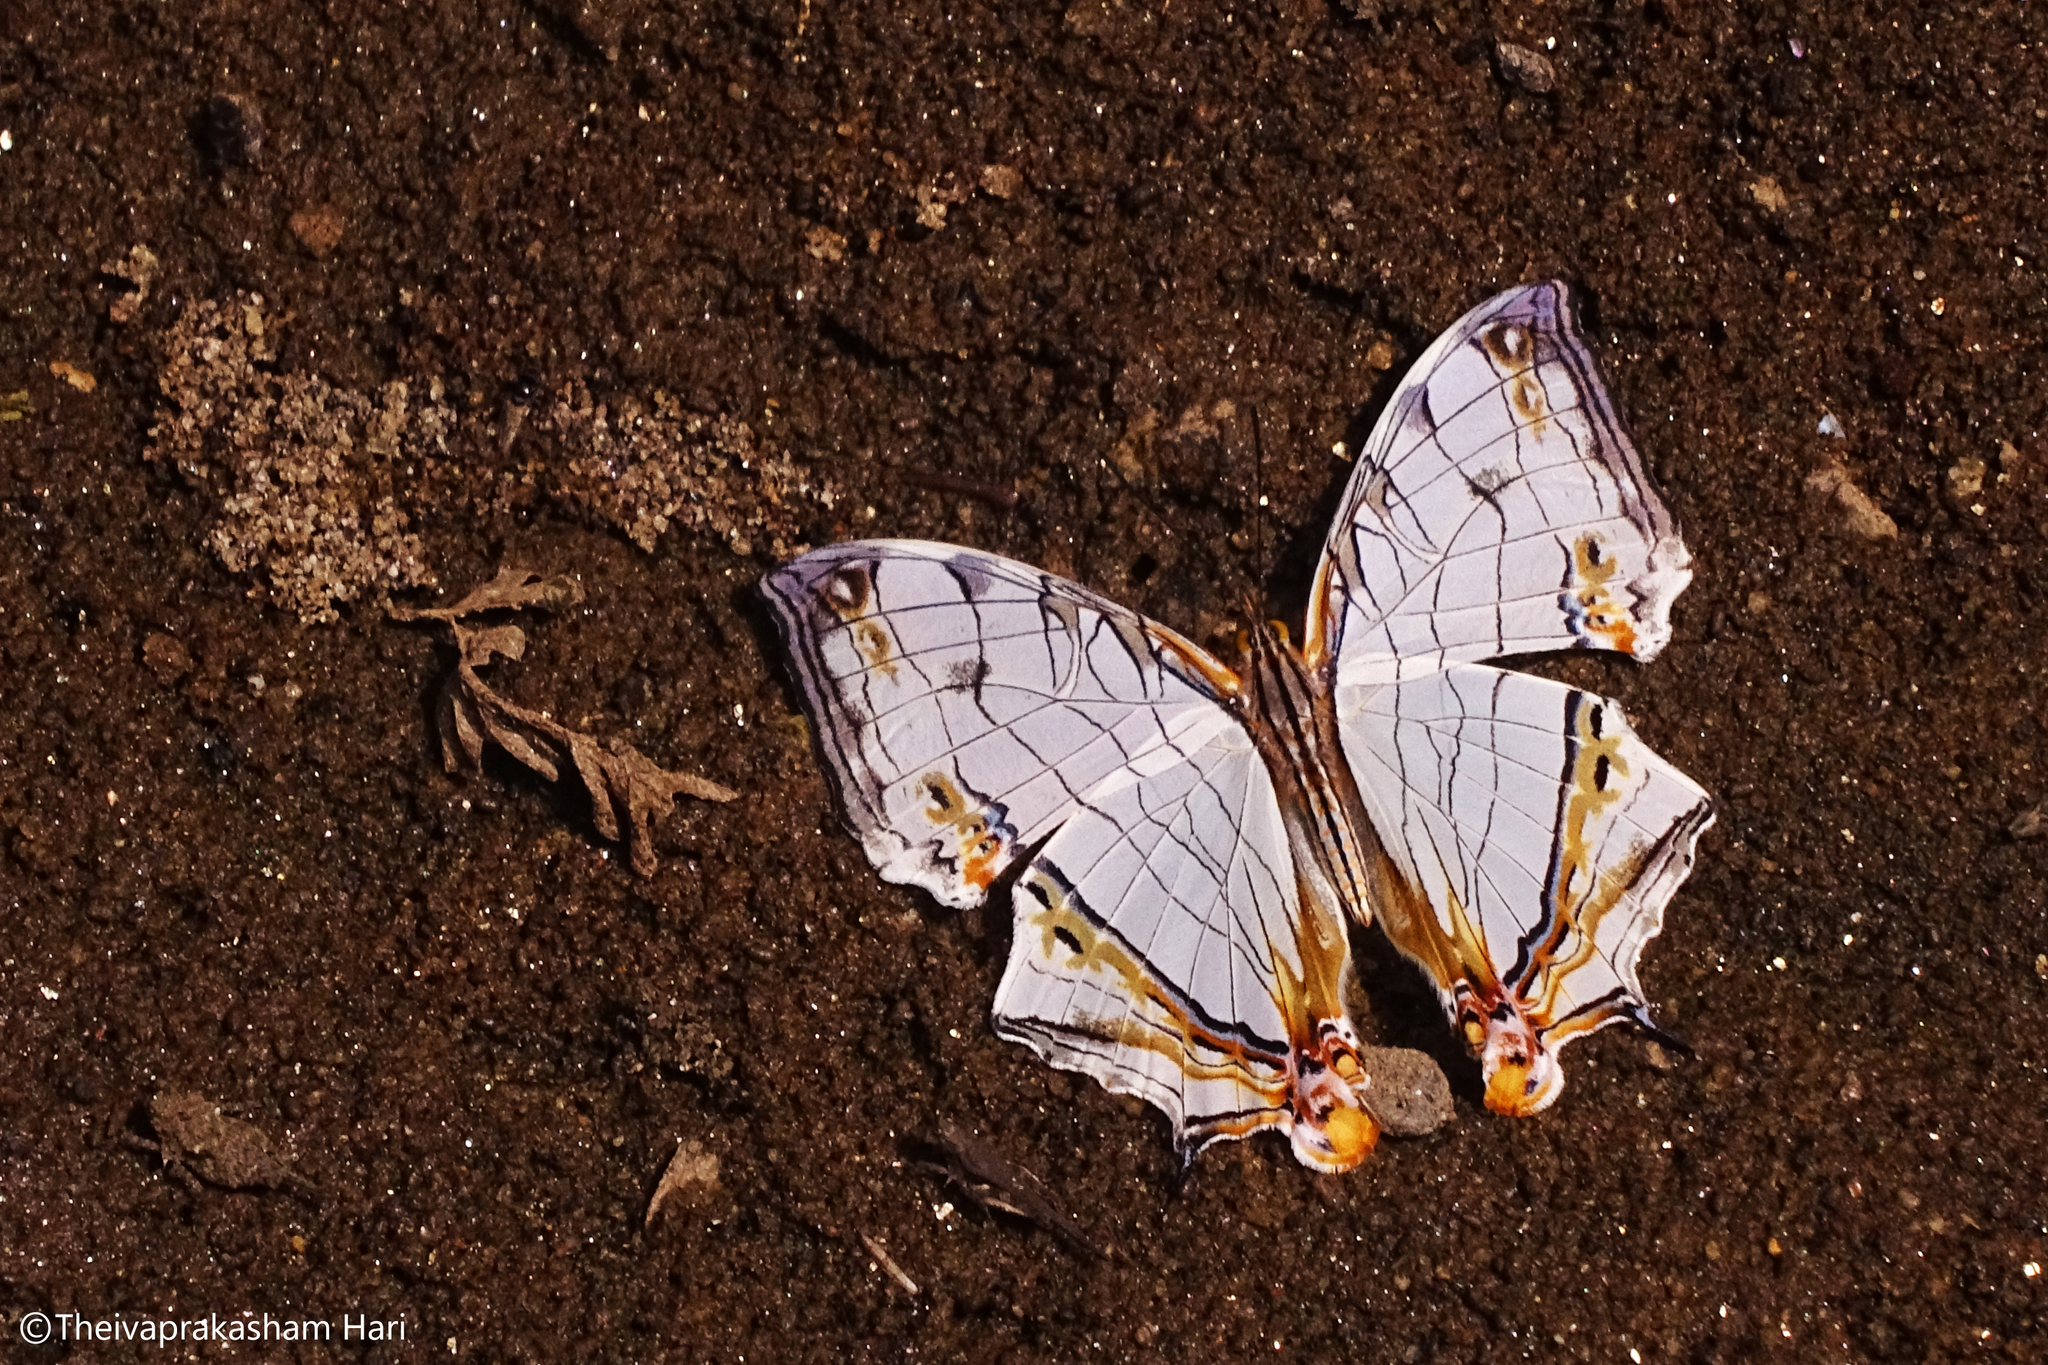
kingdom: Animalia
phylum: Arthropoda
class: Insecta
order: Lepidoptera
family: Nymphalidae
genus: Cyrestis
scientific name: Cyrestis thyodamas
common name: Common mapwing
